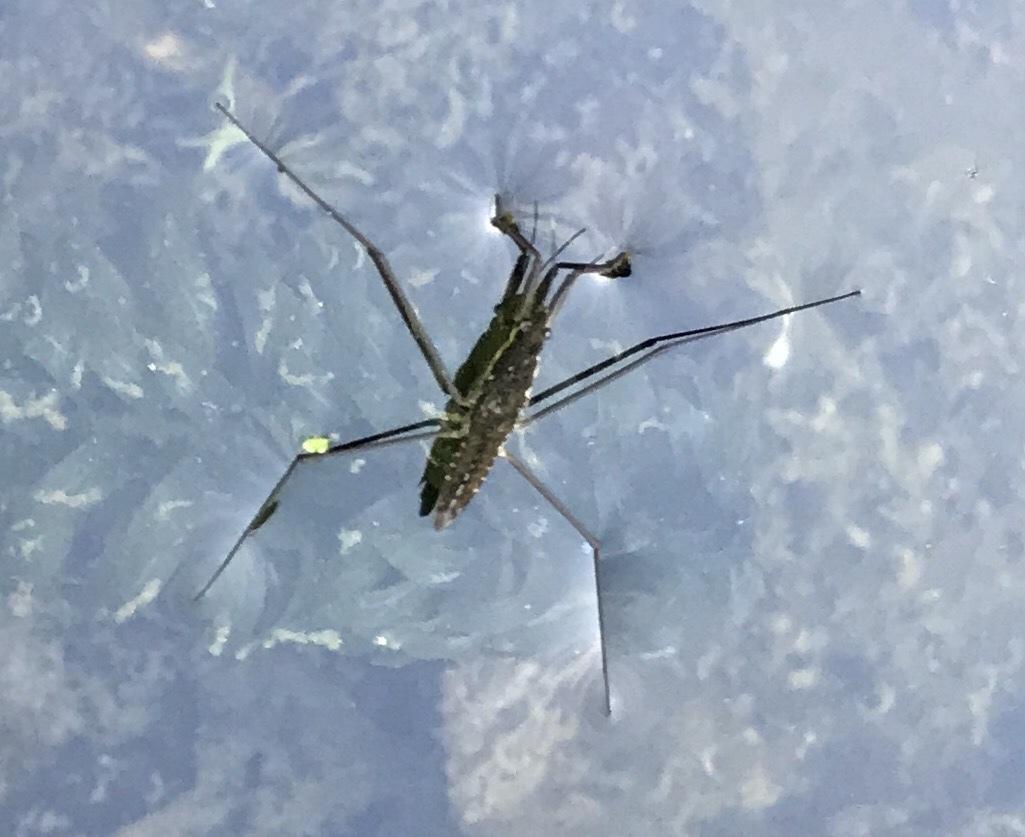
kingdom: Animalia
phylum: Arthropoda
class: Insecta
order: Hemiptera
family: Gerridae
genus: Aquarius
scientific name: Aquarius remigis
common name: Common water strider
